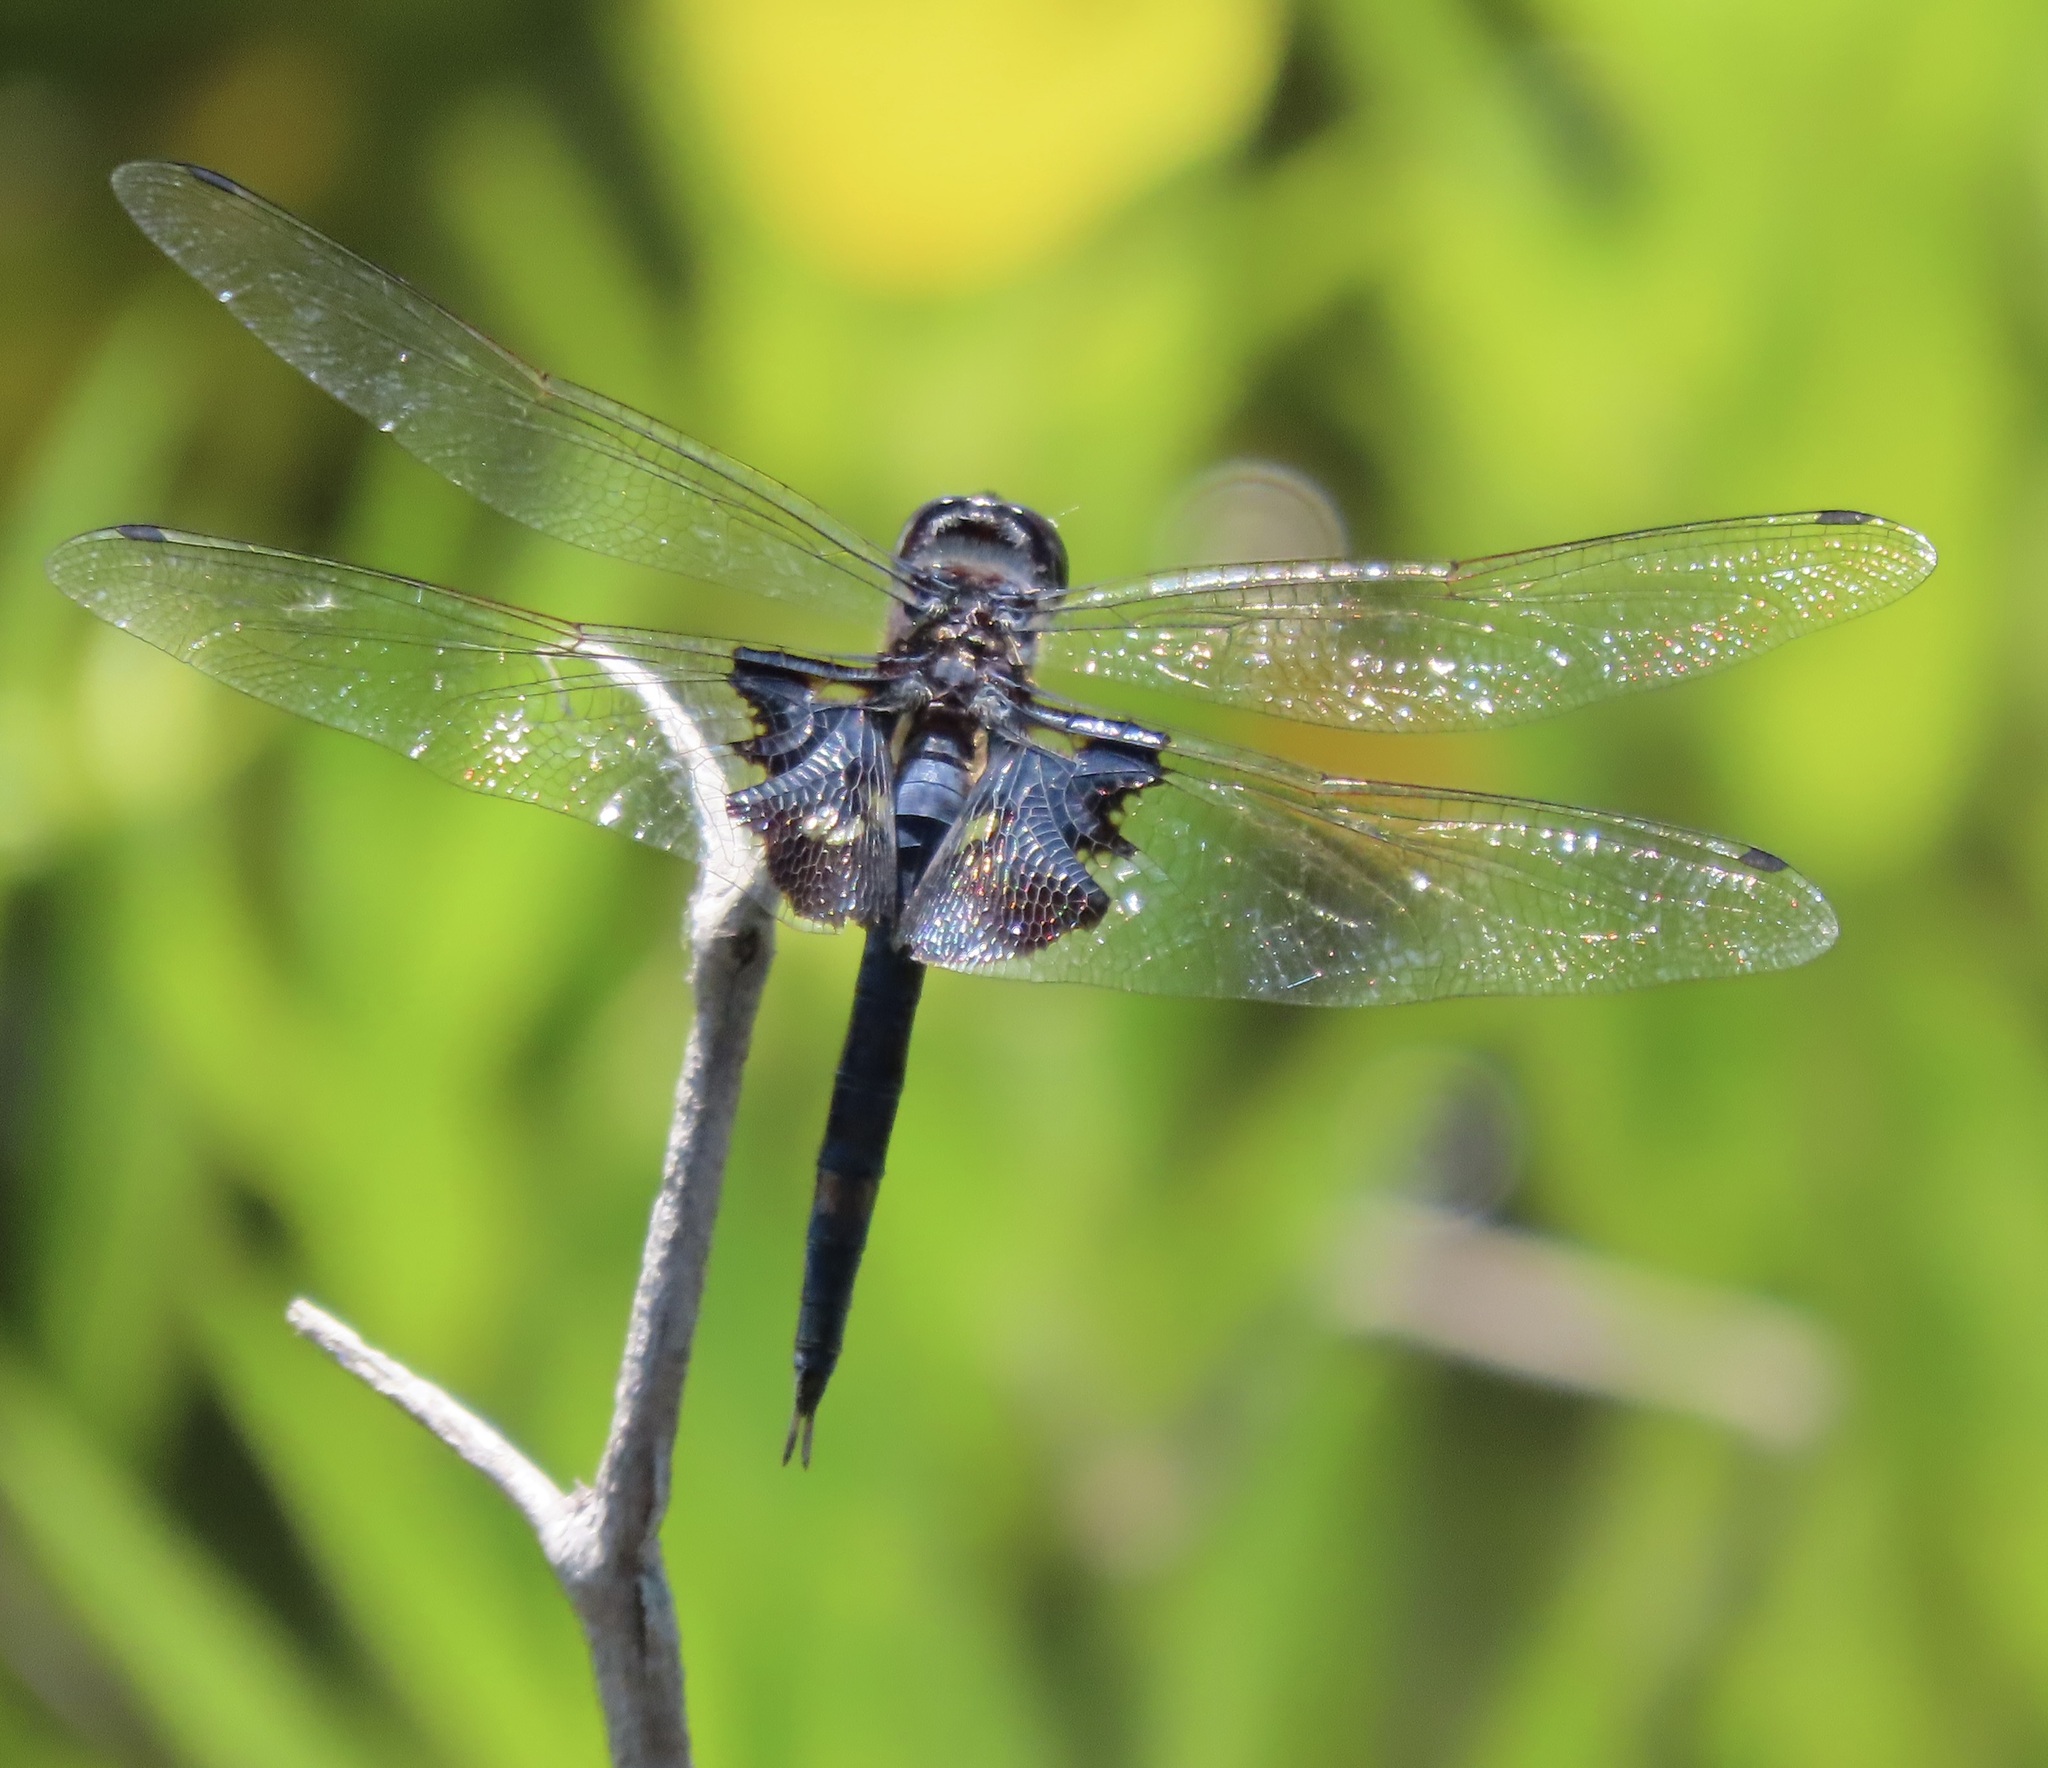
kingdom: Animalia
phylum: Arthropoda
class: Insecta
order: Odonata
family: Libellulidae
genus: Tramea
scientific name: Tramea lacerata
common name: Black saddlebags
